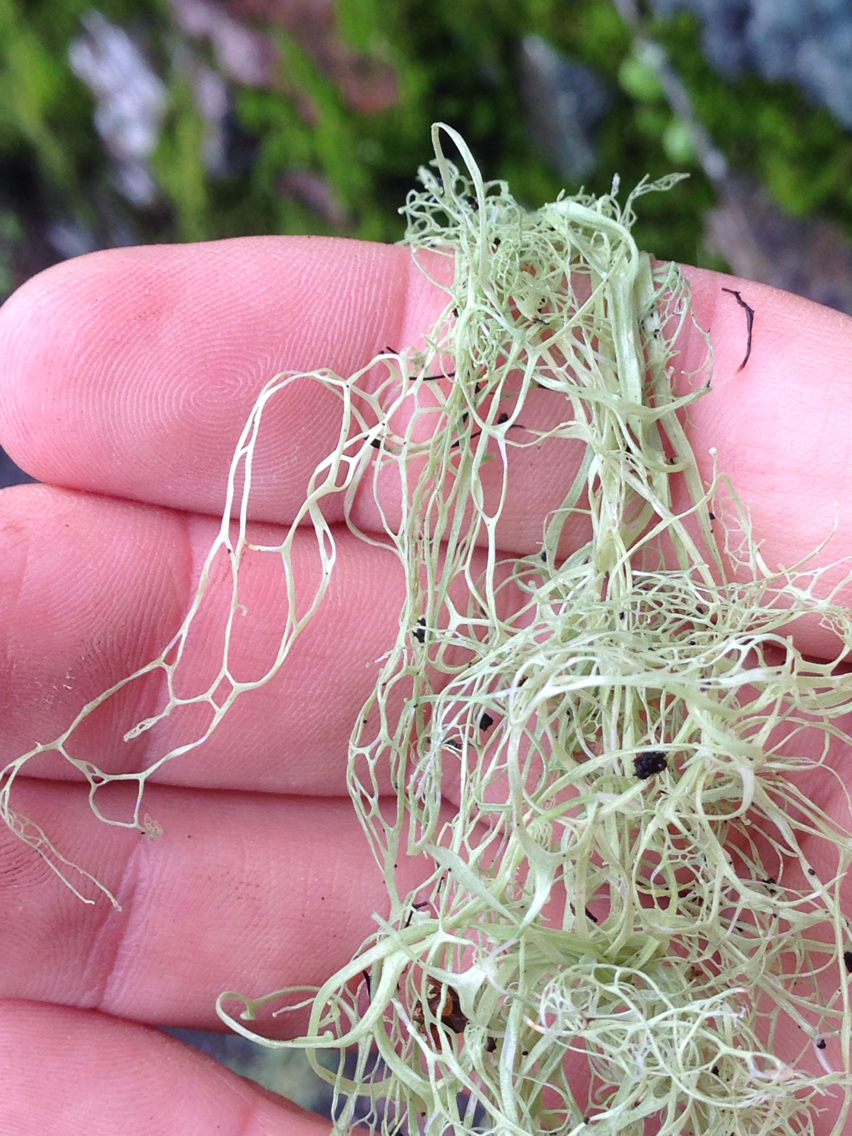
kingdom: Fungi
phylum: Ascomycota
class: Lecanoromycetes
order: Lecanorales
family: Ramalinaceae
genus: Ramalina
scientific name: Ramalina menziesii
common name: Lace lichen
